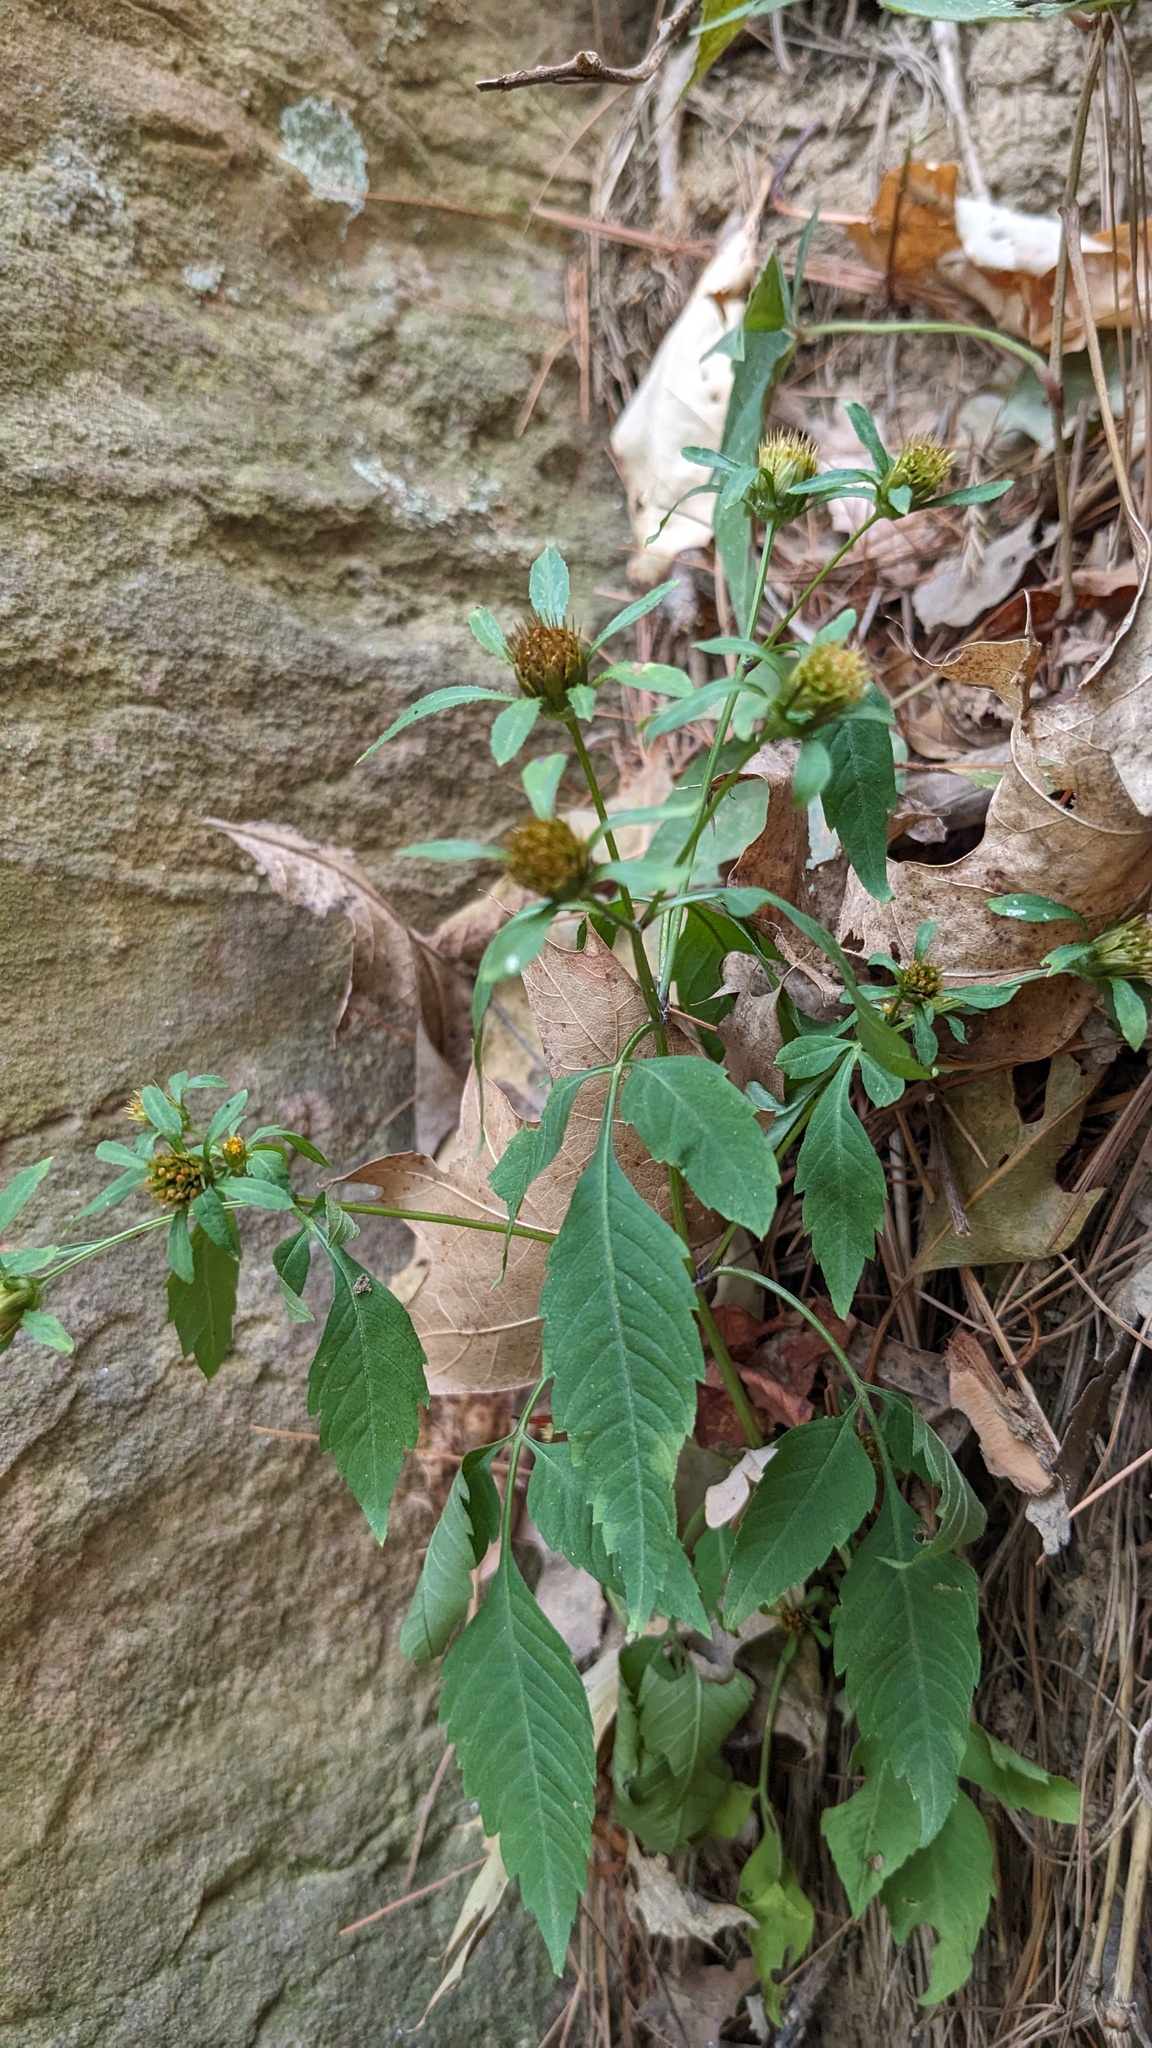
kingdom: Plantae
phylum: Tracheophyta
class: Magnoliopsida
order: Asterales
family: Asteraceae
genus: Bidens
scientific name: Bidens frondosa
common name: Beggarticks
